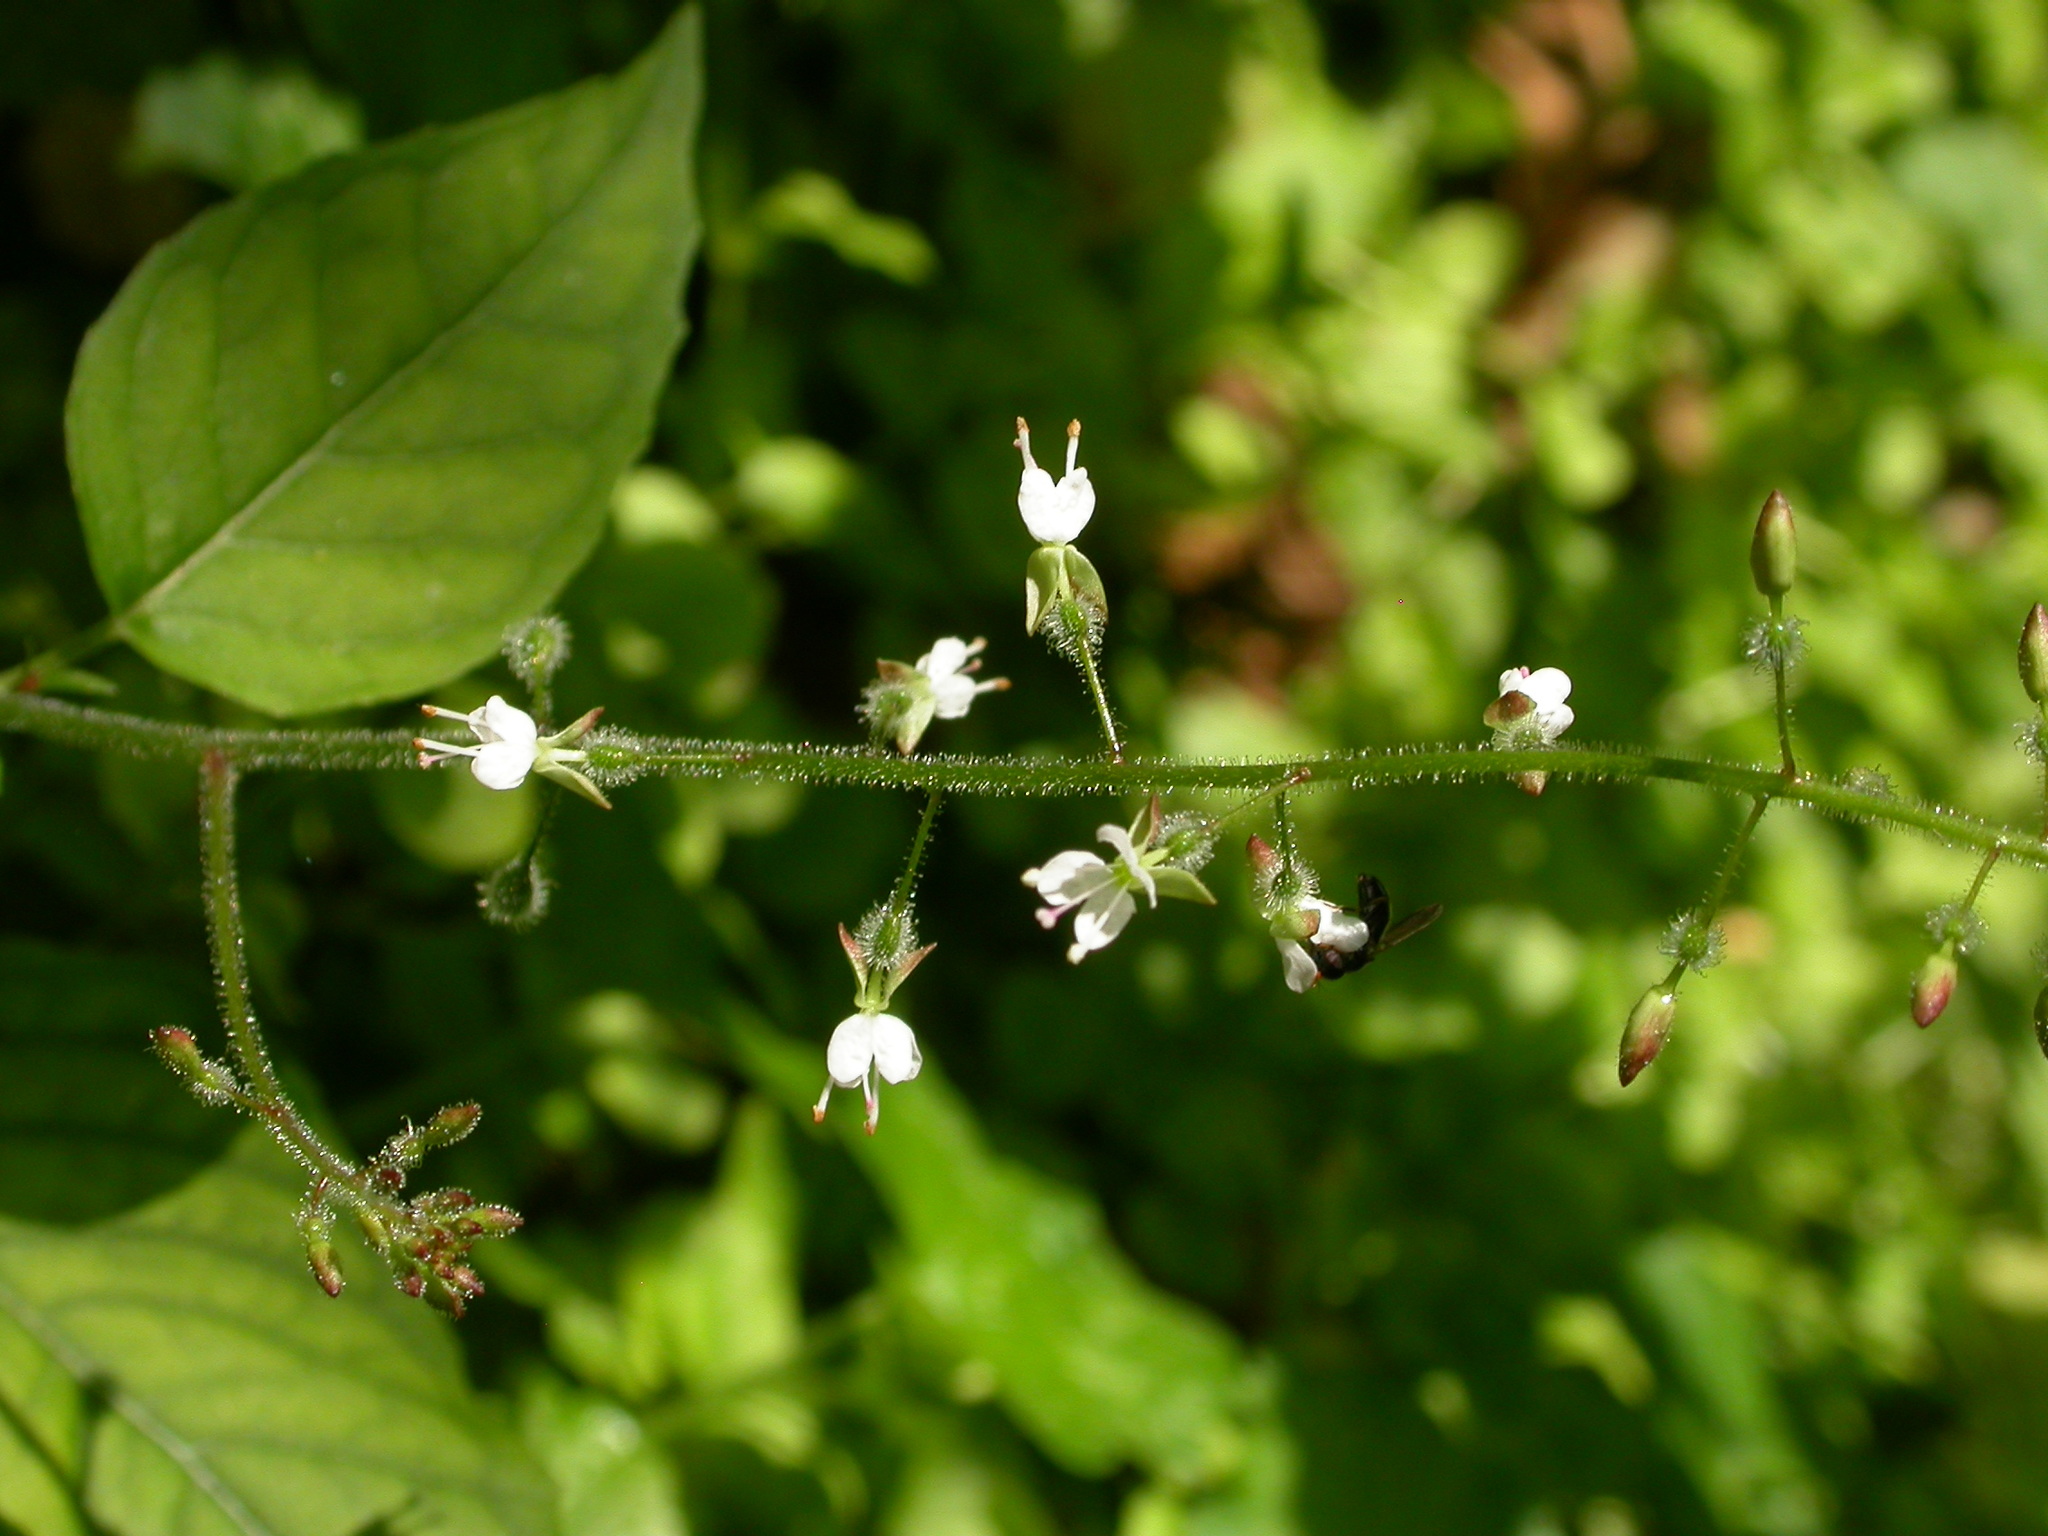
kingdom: Plantae
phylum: Tracheophyta
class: Magnoliopsida
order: Myrtales
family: Onagraceae
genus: Circaea
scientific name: Circaea lutetiana
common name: Enchanter's-nightshade
